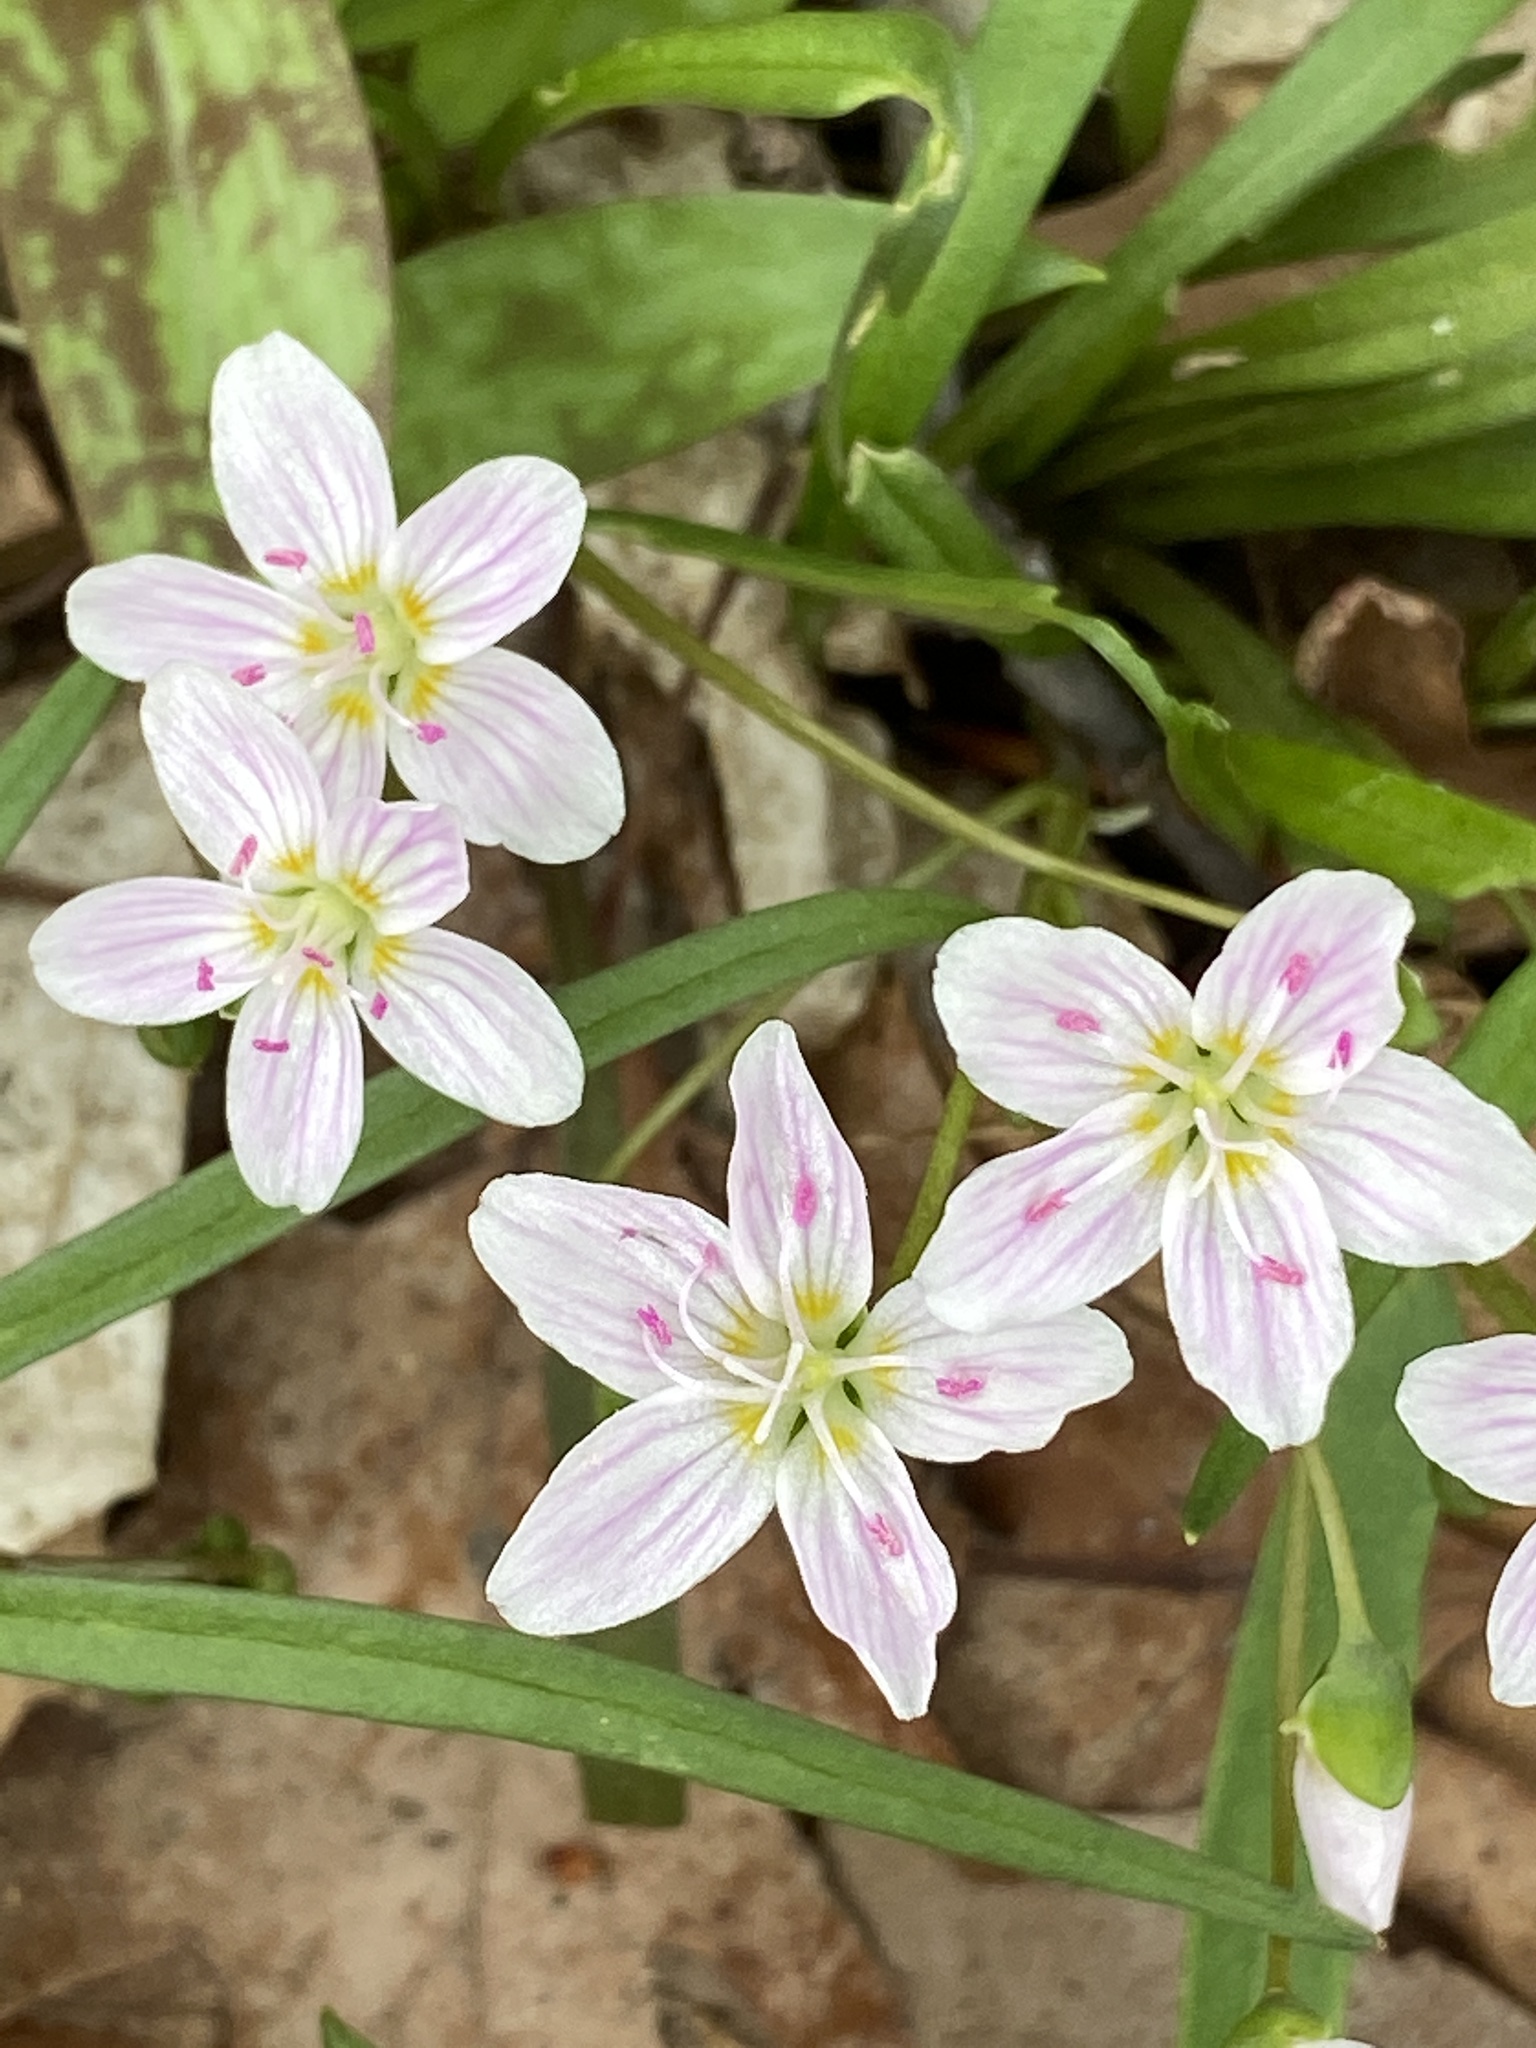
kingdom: Plantae
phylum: Tracheophyta
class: Magnoliopsida
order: Caryophyllales
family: Montiaceae
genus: Claytonia
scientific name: Claytonia virginica
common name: Virginia springbeauty
